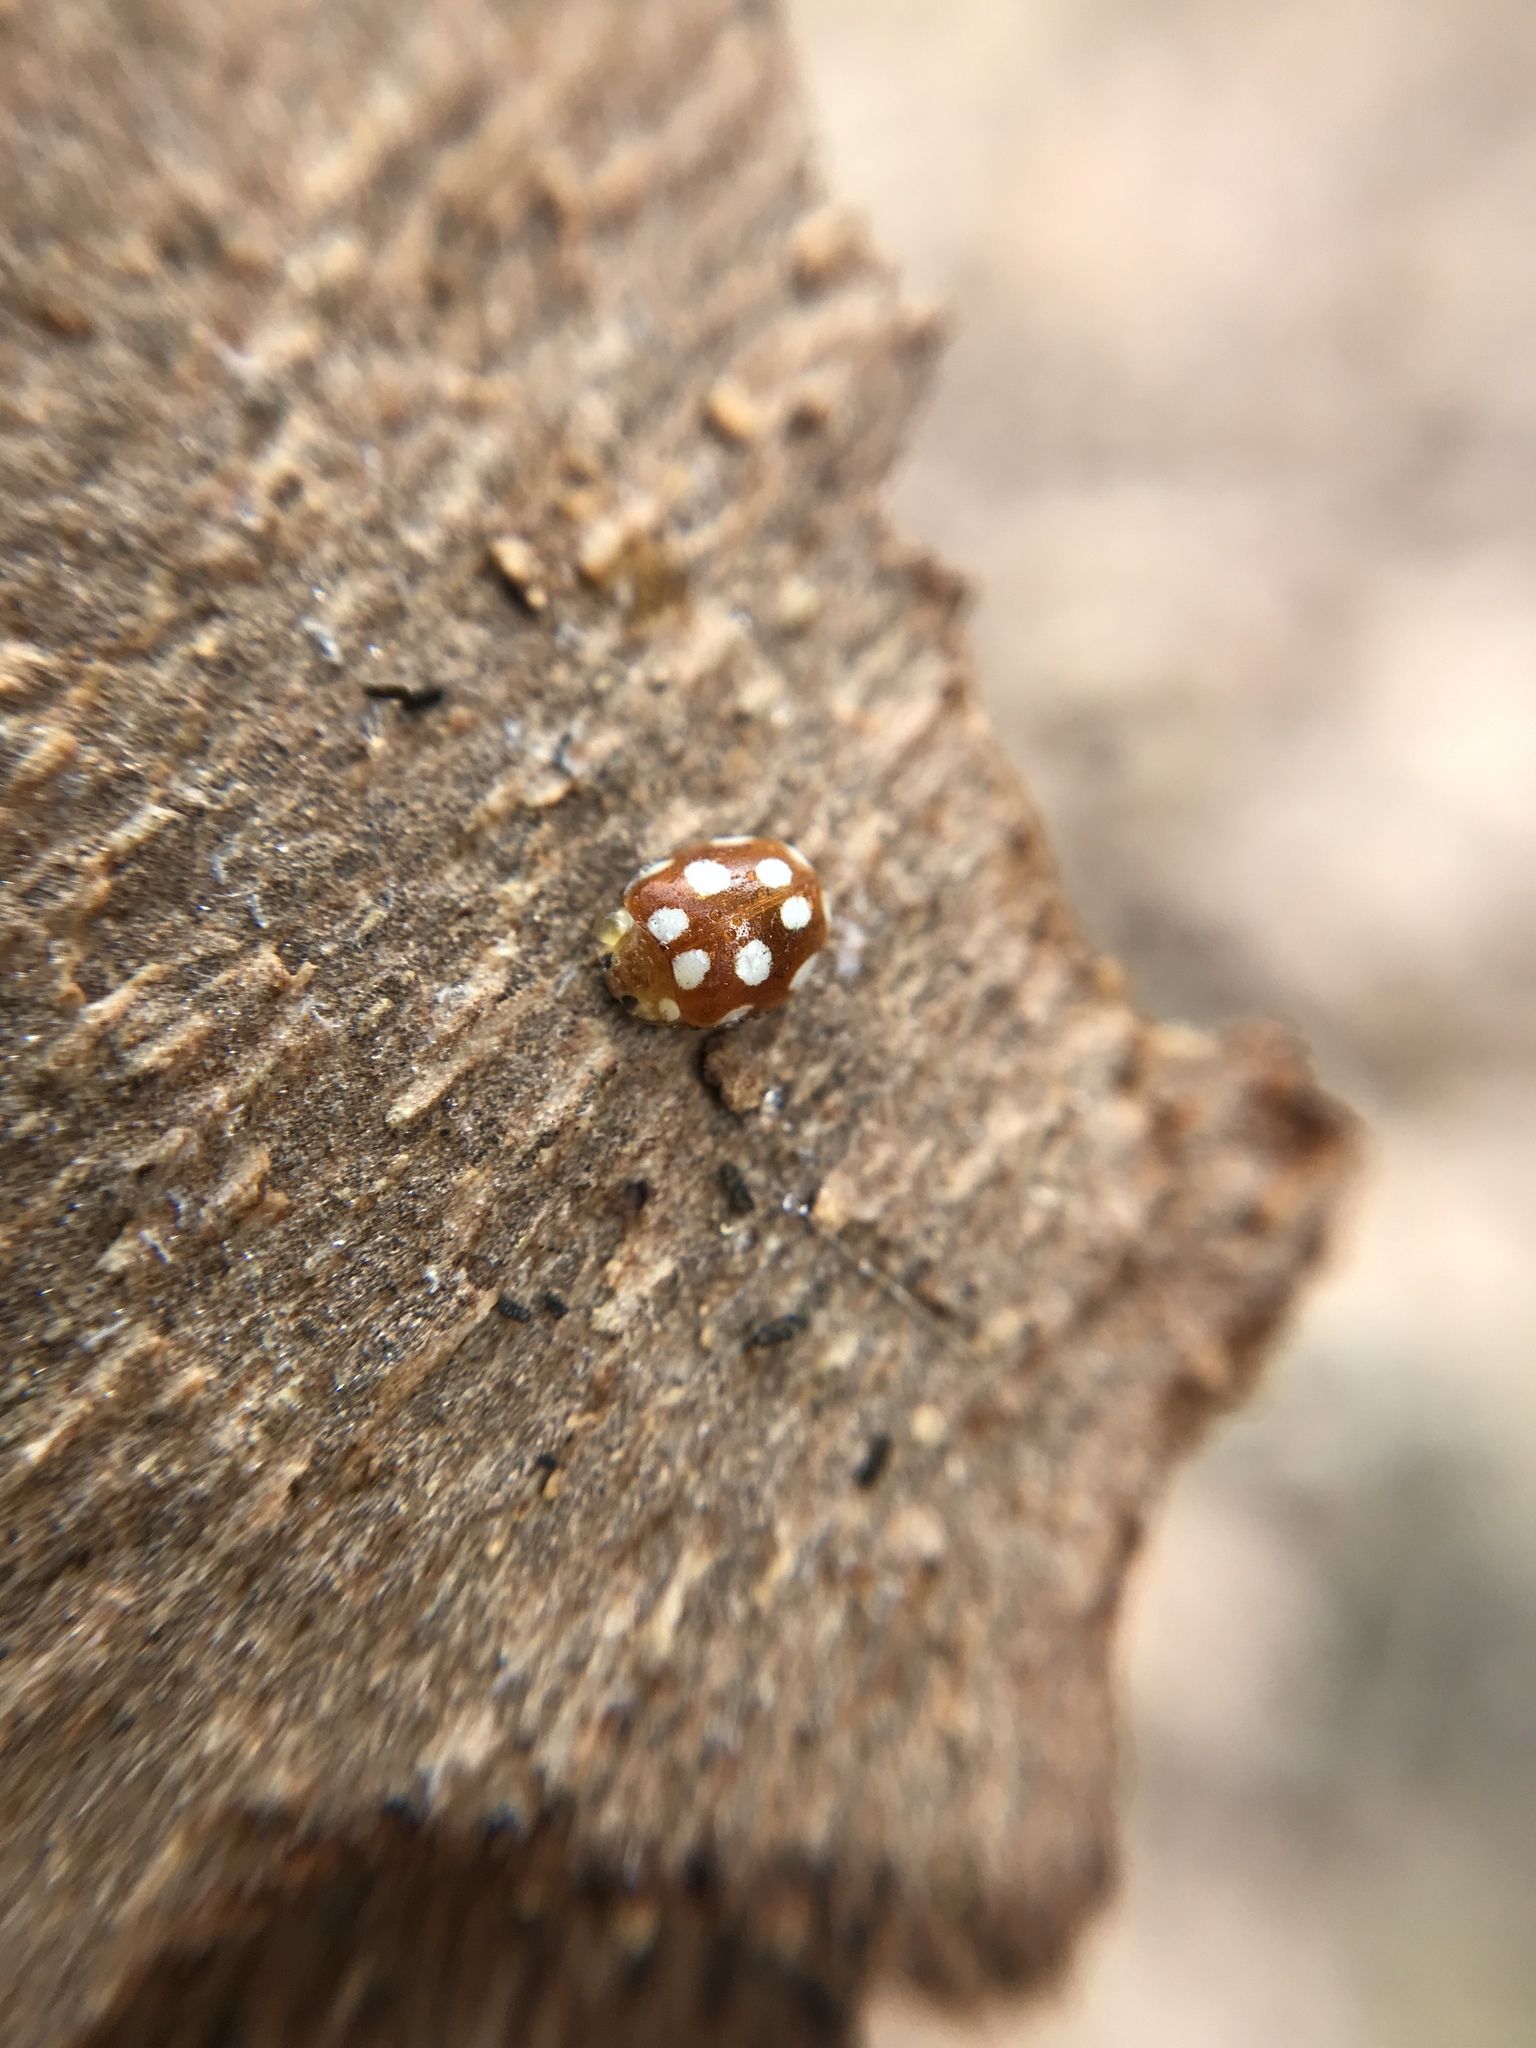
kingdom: Animalia
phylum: Arthropoda
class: Insecta
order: Coleoptera
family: Coccinellidae
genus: Vibidia
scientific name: Vibidia duodecimguttata
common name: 12-spot ladybird
